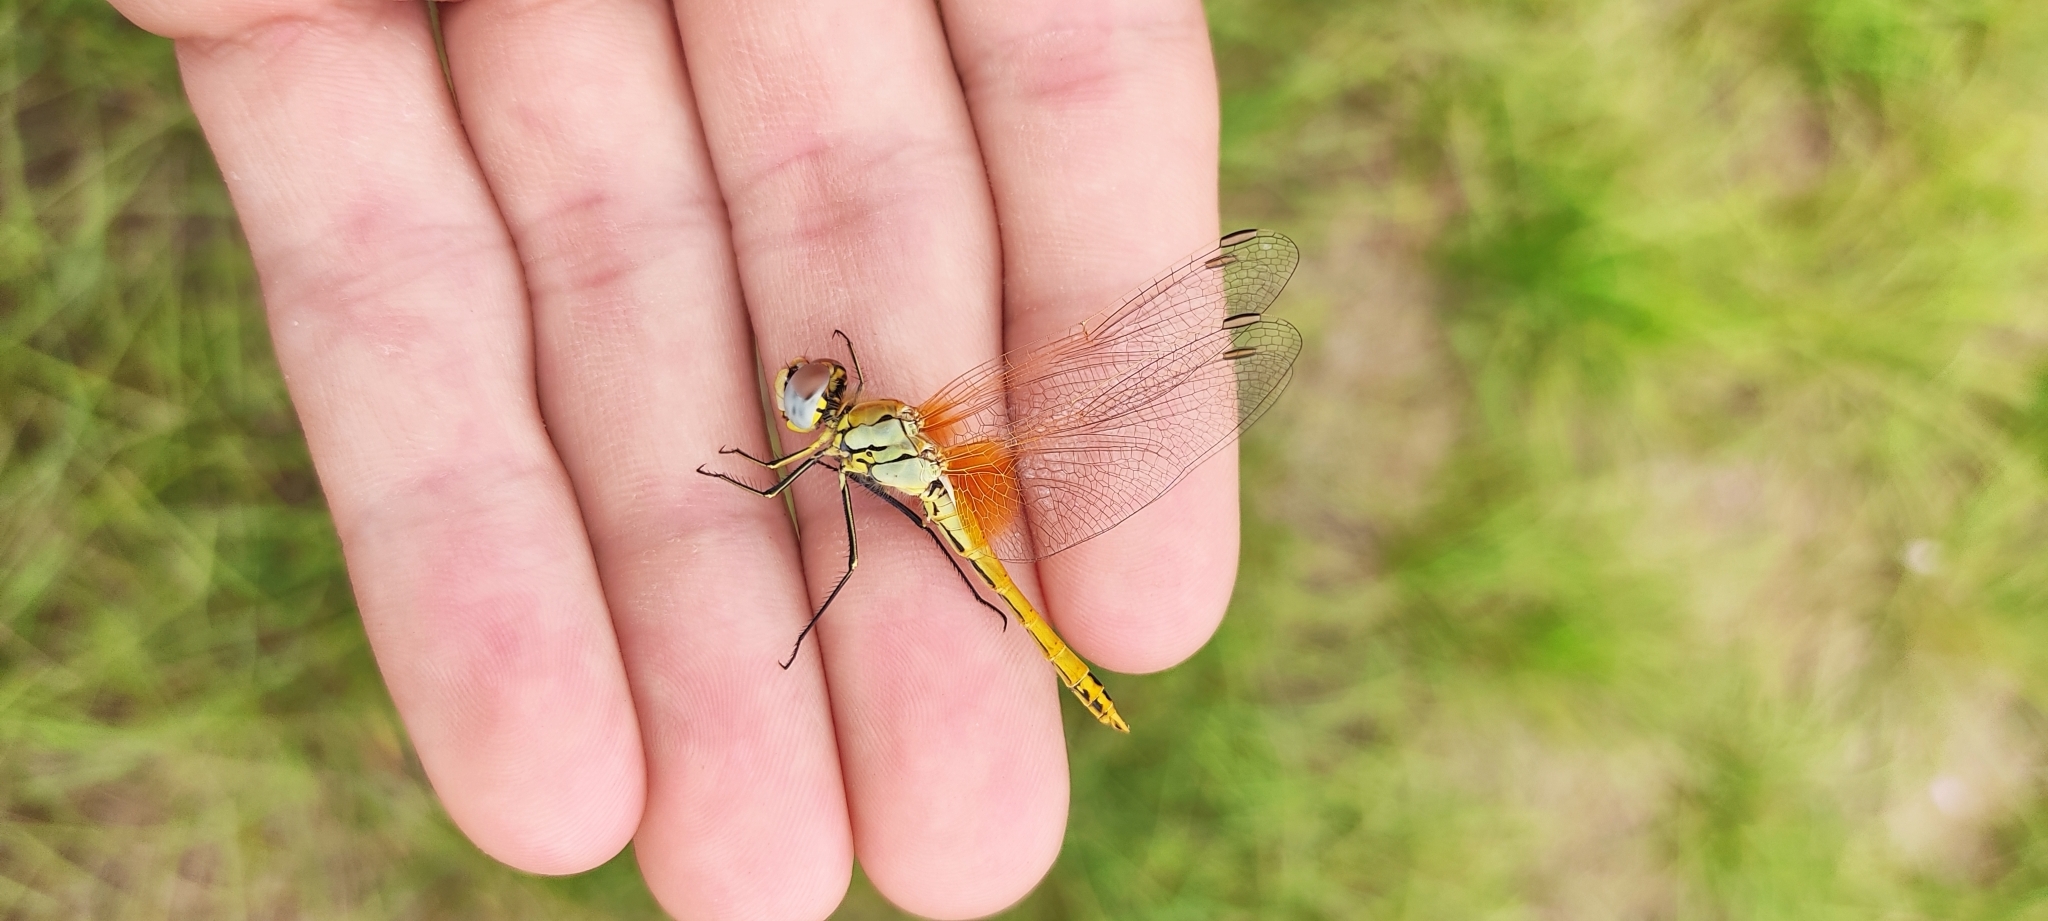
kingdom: Animalia
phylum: Arthropoda
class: Insecta
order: Odonata
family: Libellulidae
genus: Sympetrum
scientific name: Sympetrum fonscolombii
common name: Red-veined darter
